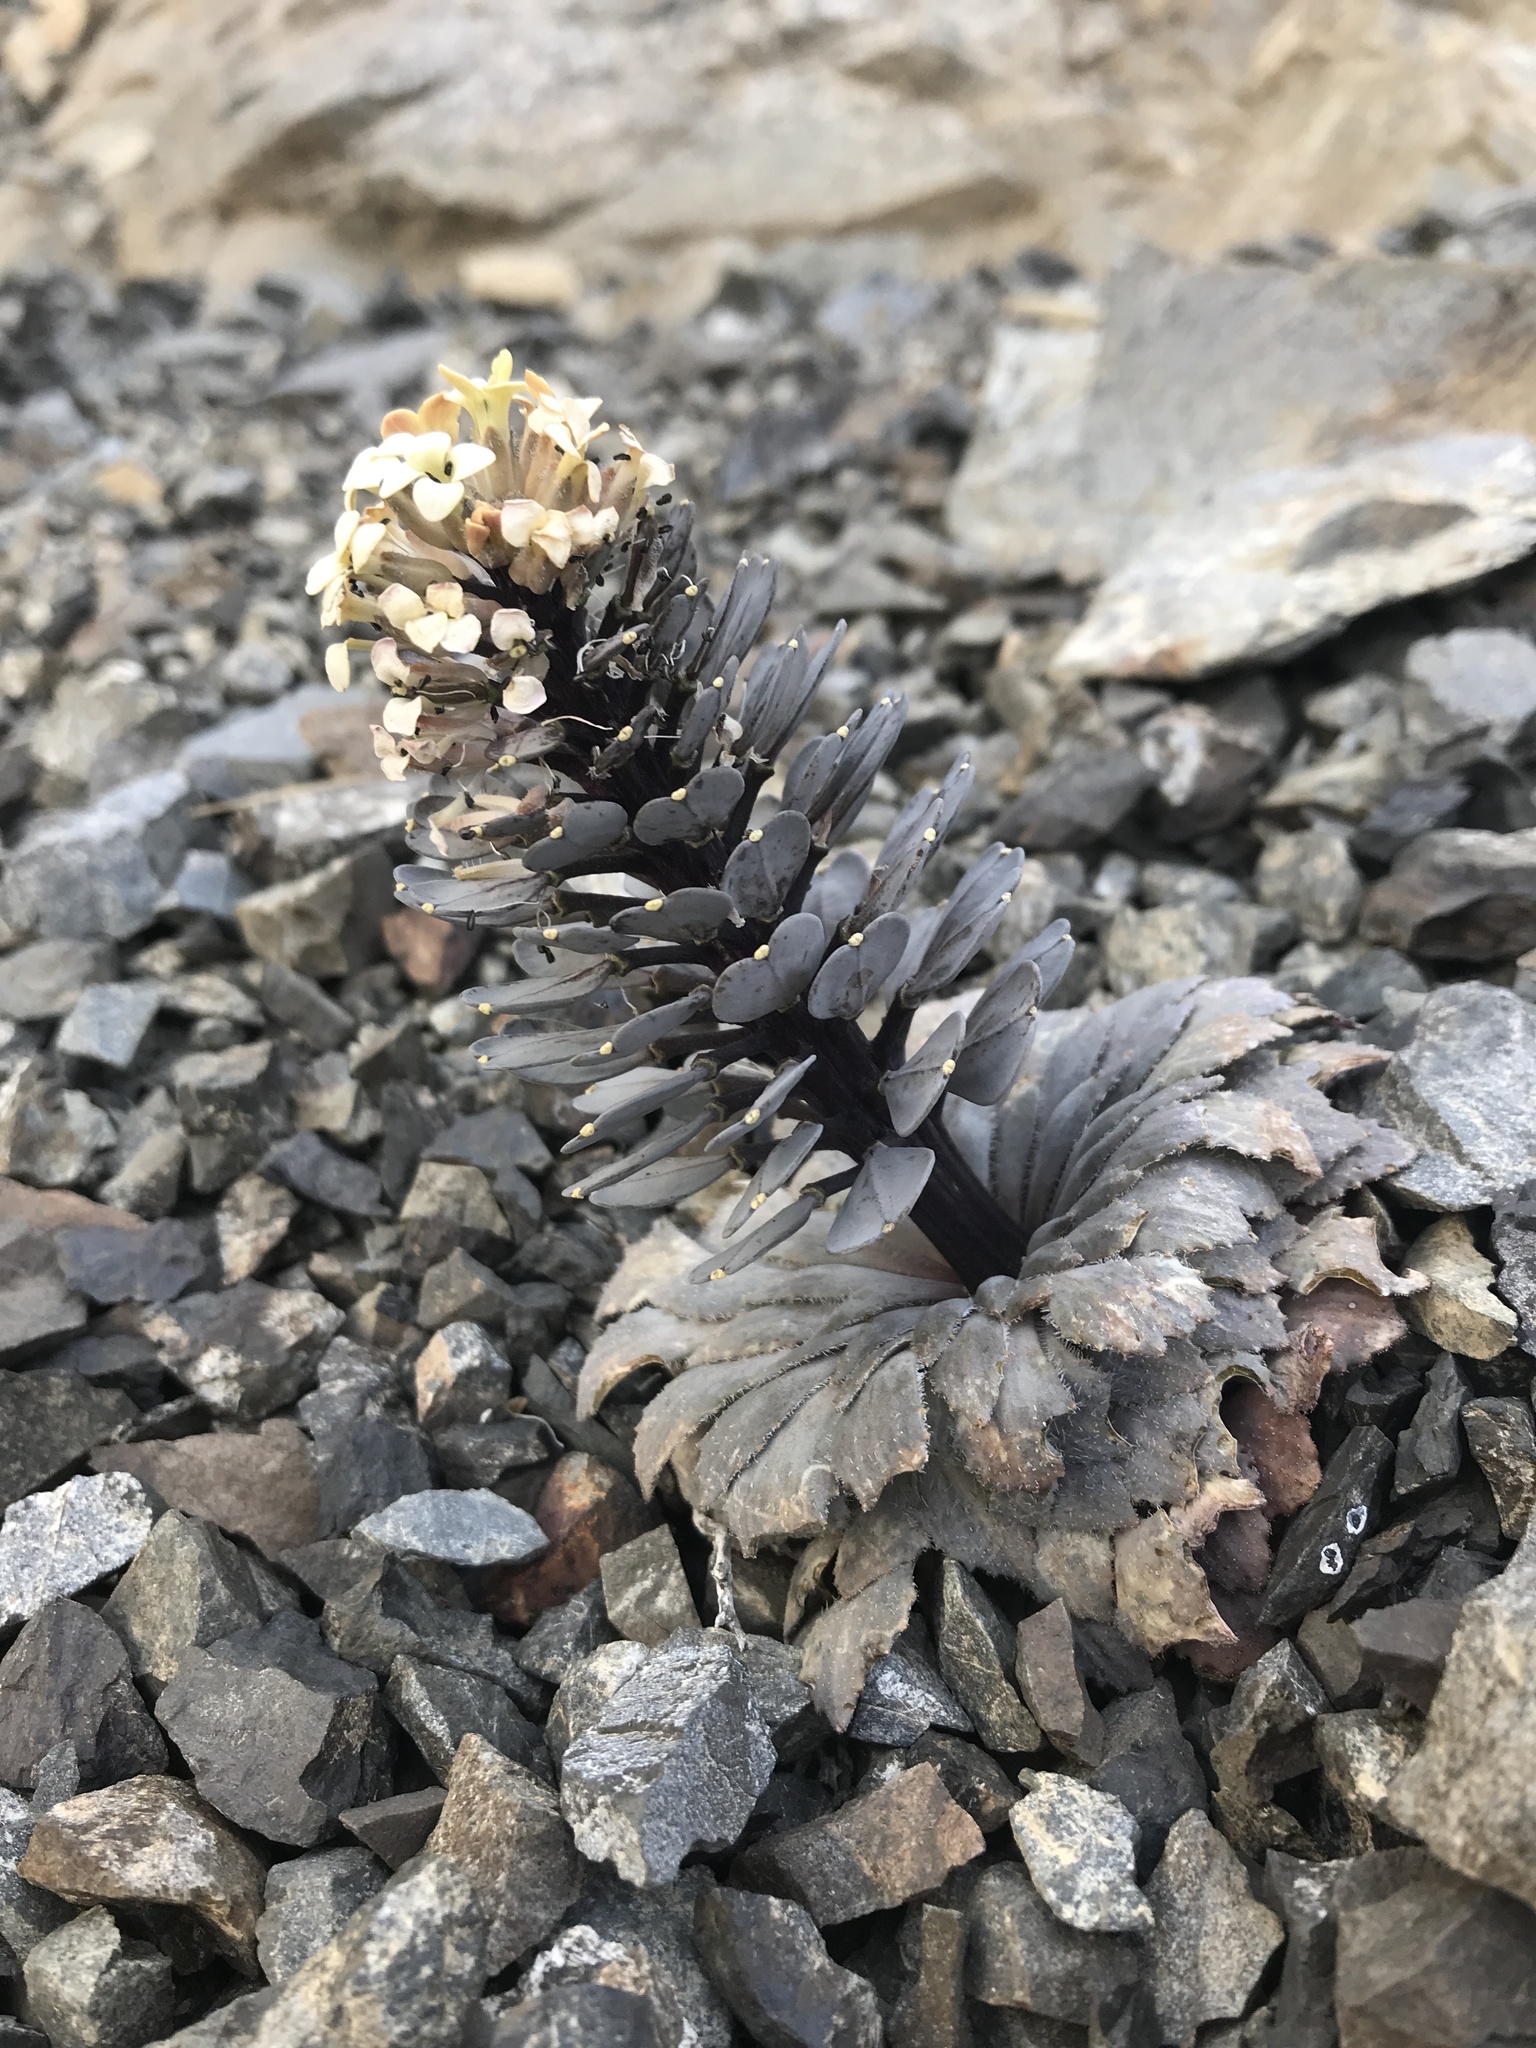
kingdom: Plantae
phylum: Tracheophyta
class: Magnoliopsida
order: Brassicales
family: Brassicaceae
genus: Notothlaspi
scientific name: Notothlaspi rosulatum
